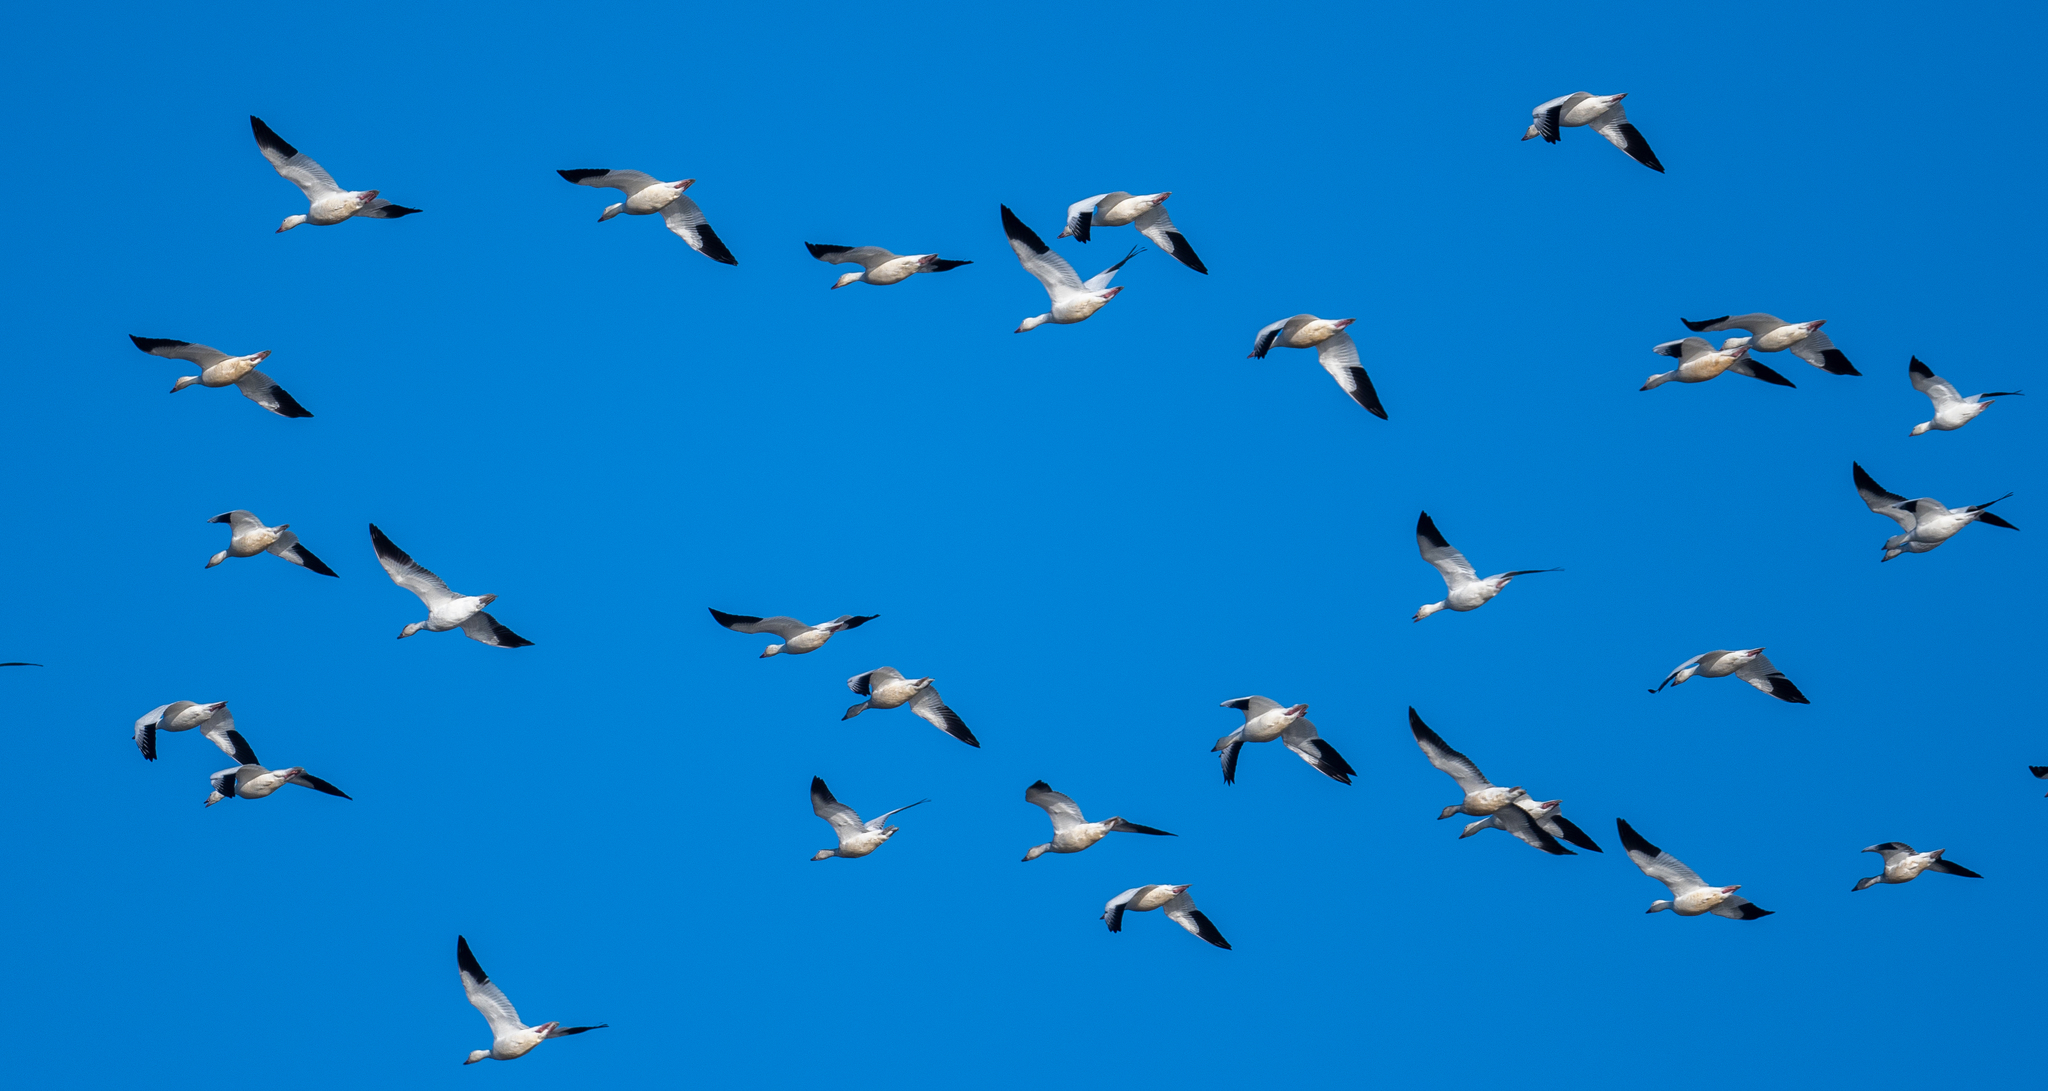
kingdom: Animalia
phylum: Chordata
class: Aves
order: Anseriformes
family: Anatidae
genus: Anser
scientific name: Anser caerulescens
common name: Snow goose
